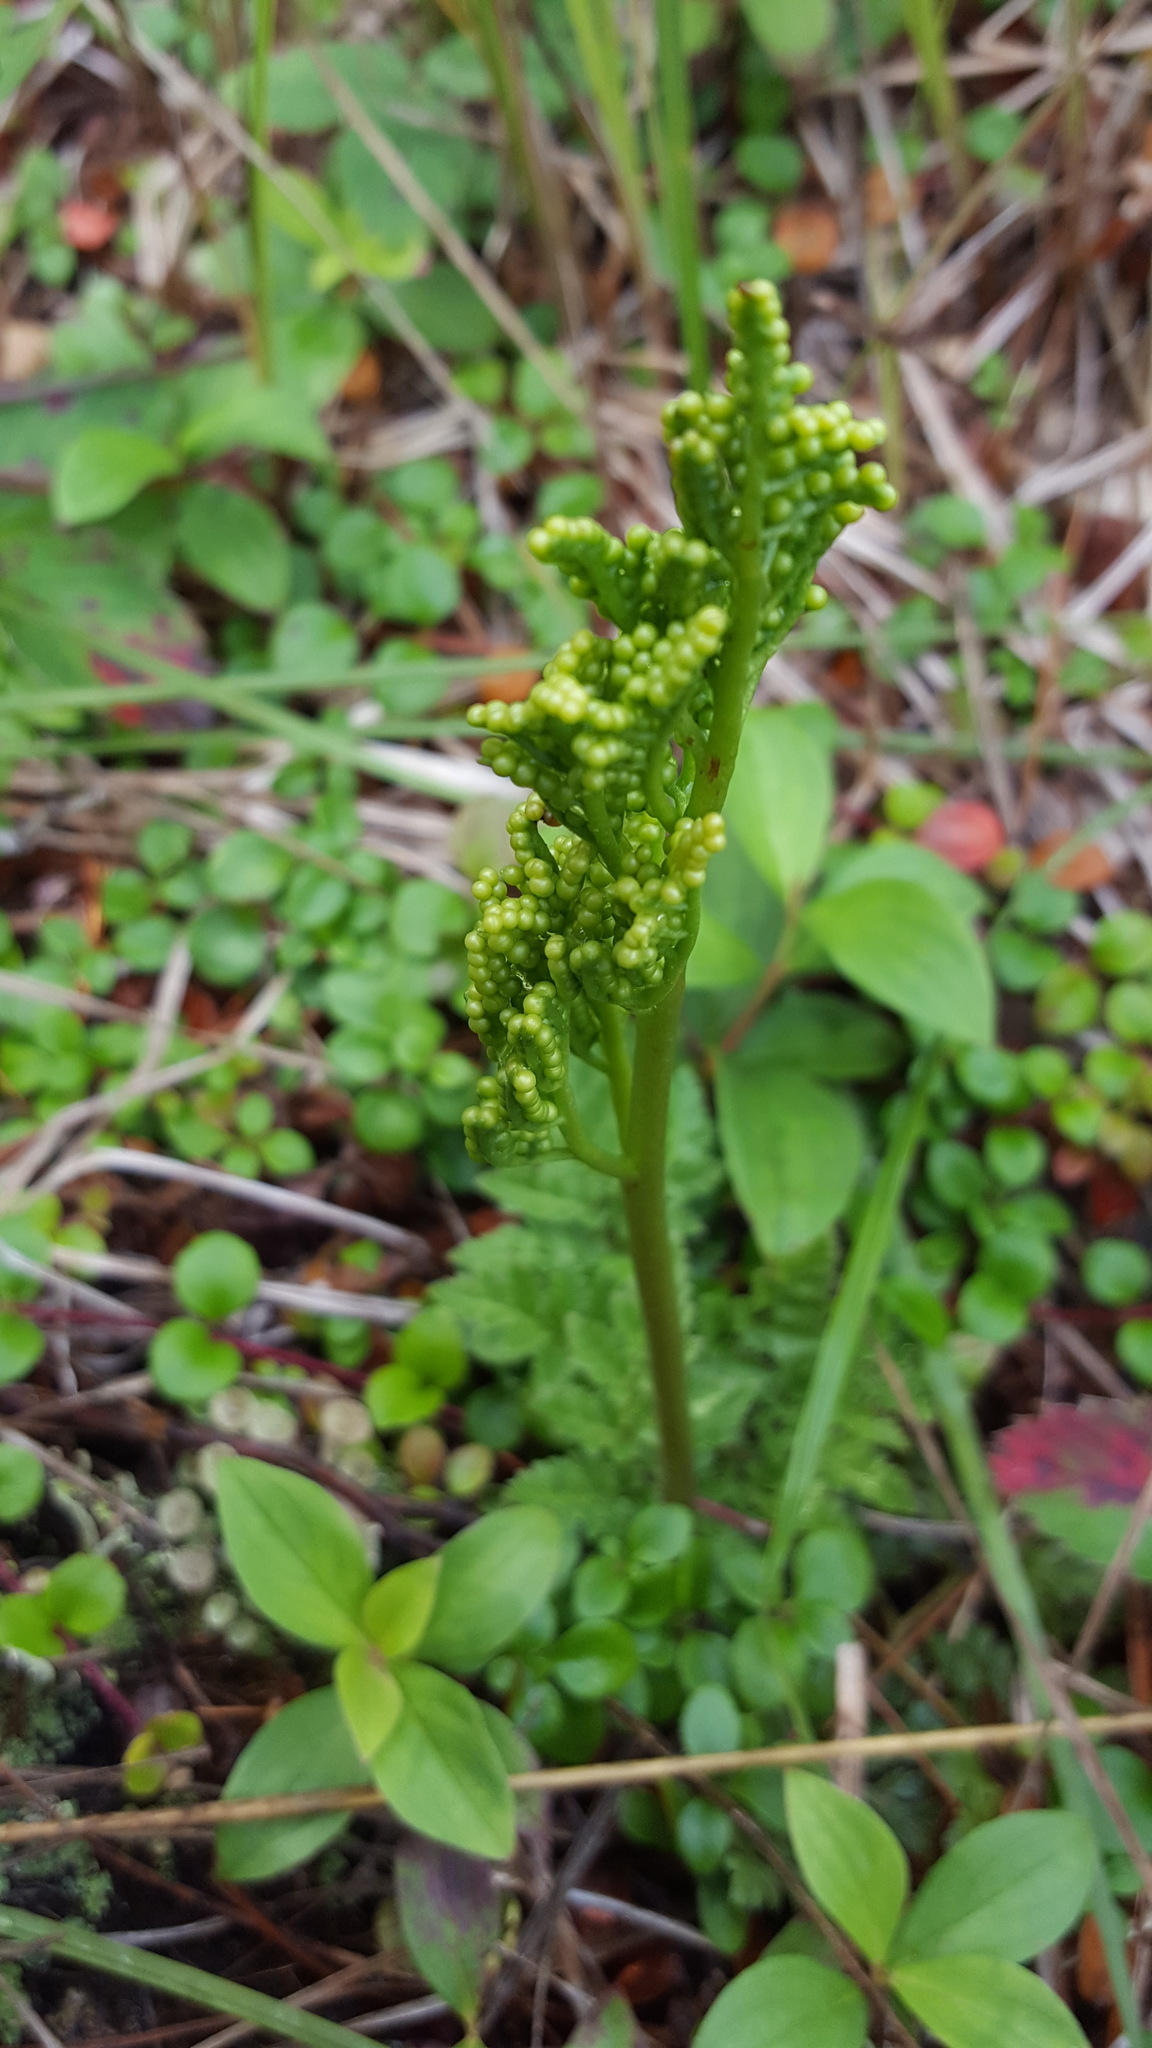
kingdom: Plantae
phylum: Tracheophyta
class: Polypodiopsida
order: Ophioglossales
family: Ophioglossaceae
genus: Sceptridium
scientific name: Sceptridium multifidum
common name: Leathery grape fern
